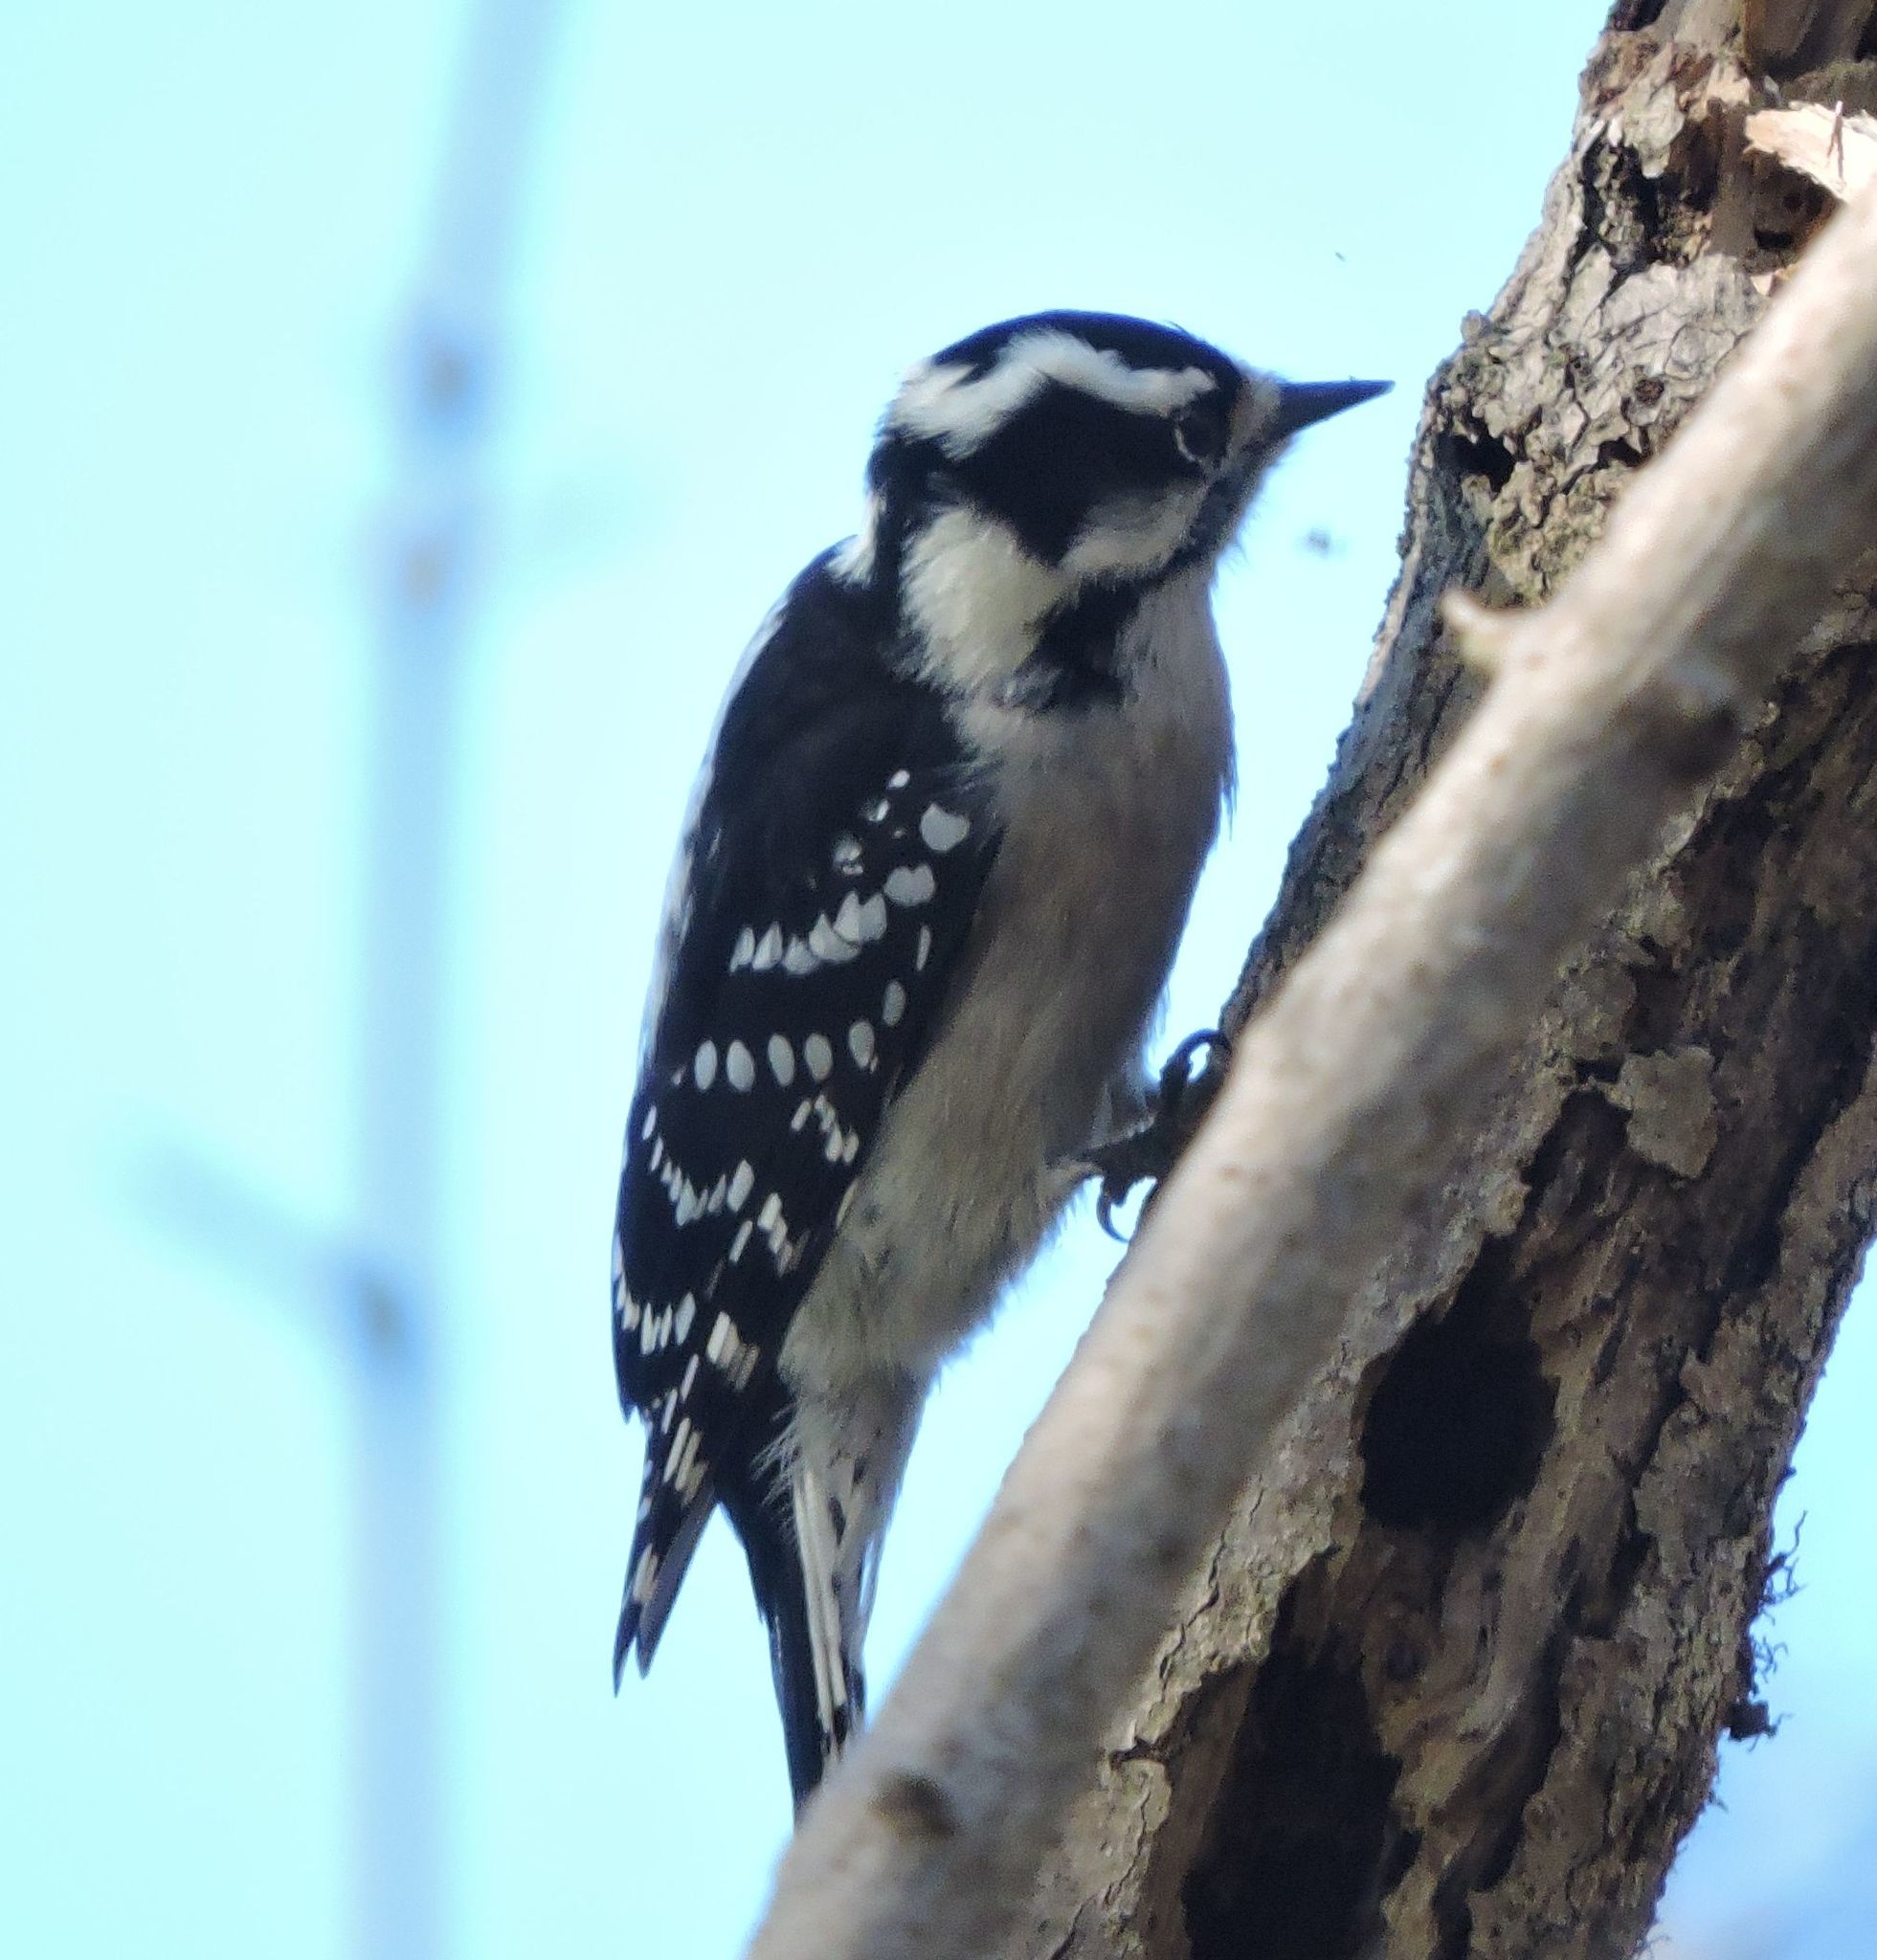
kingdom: Animalia
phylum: Chordata
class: Aves
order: Piciformes
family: Picidae
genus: Dryobates
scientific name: Dryobates pubescens
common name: Downy woodpecker
